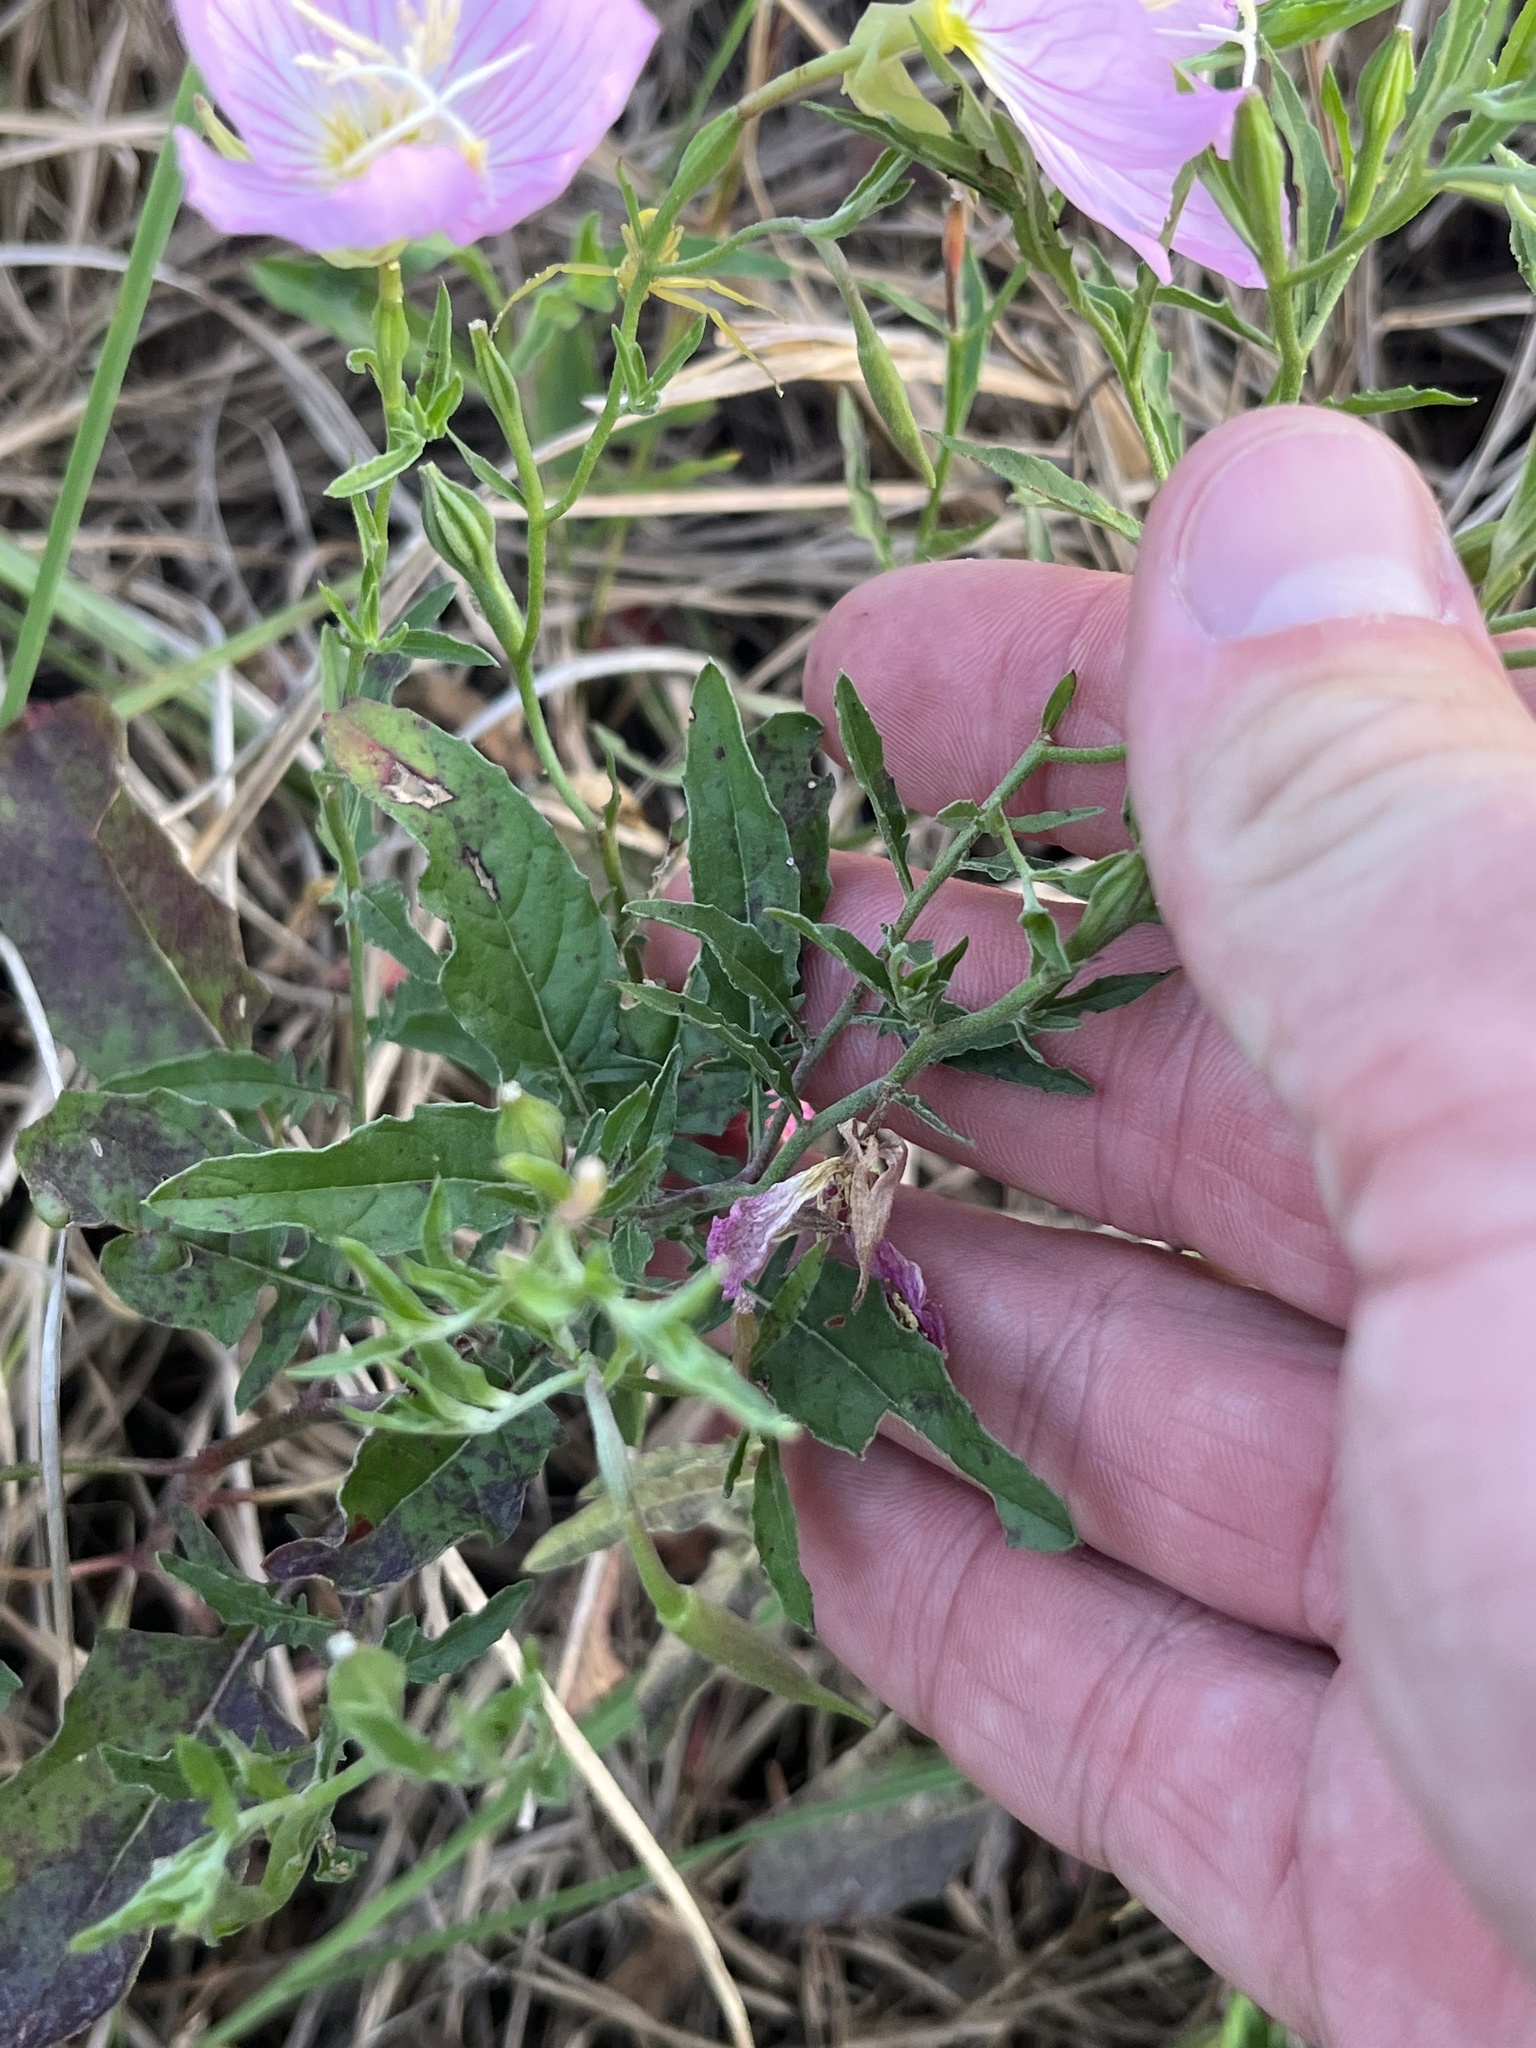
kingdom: Plantae
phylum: Tracheophyta
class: Magnoliopsida
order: Myrtales
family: Onagraceae
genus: Oenothera
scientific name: Oenothera speciosa
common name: White evening-primrose
